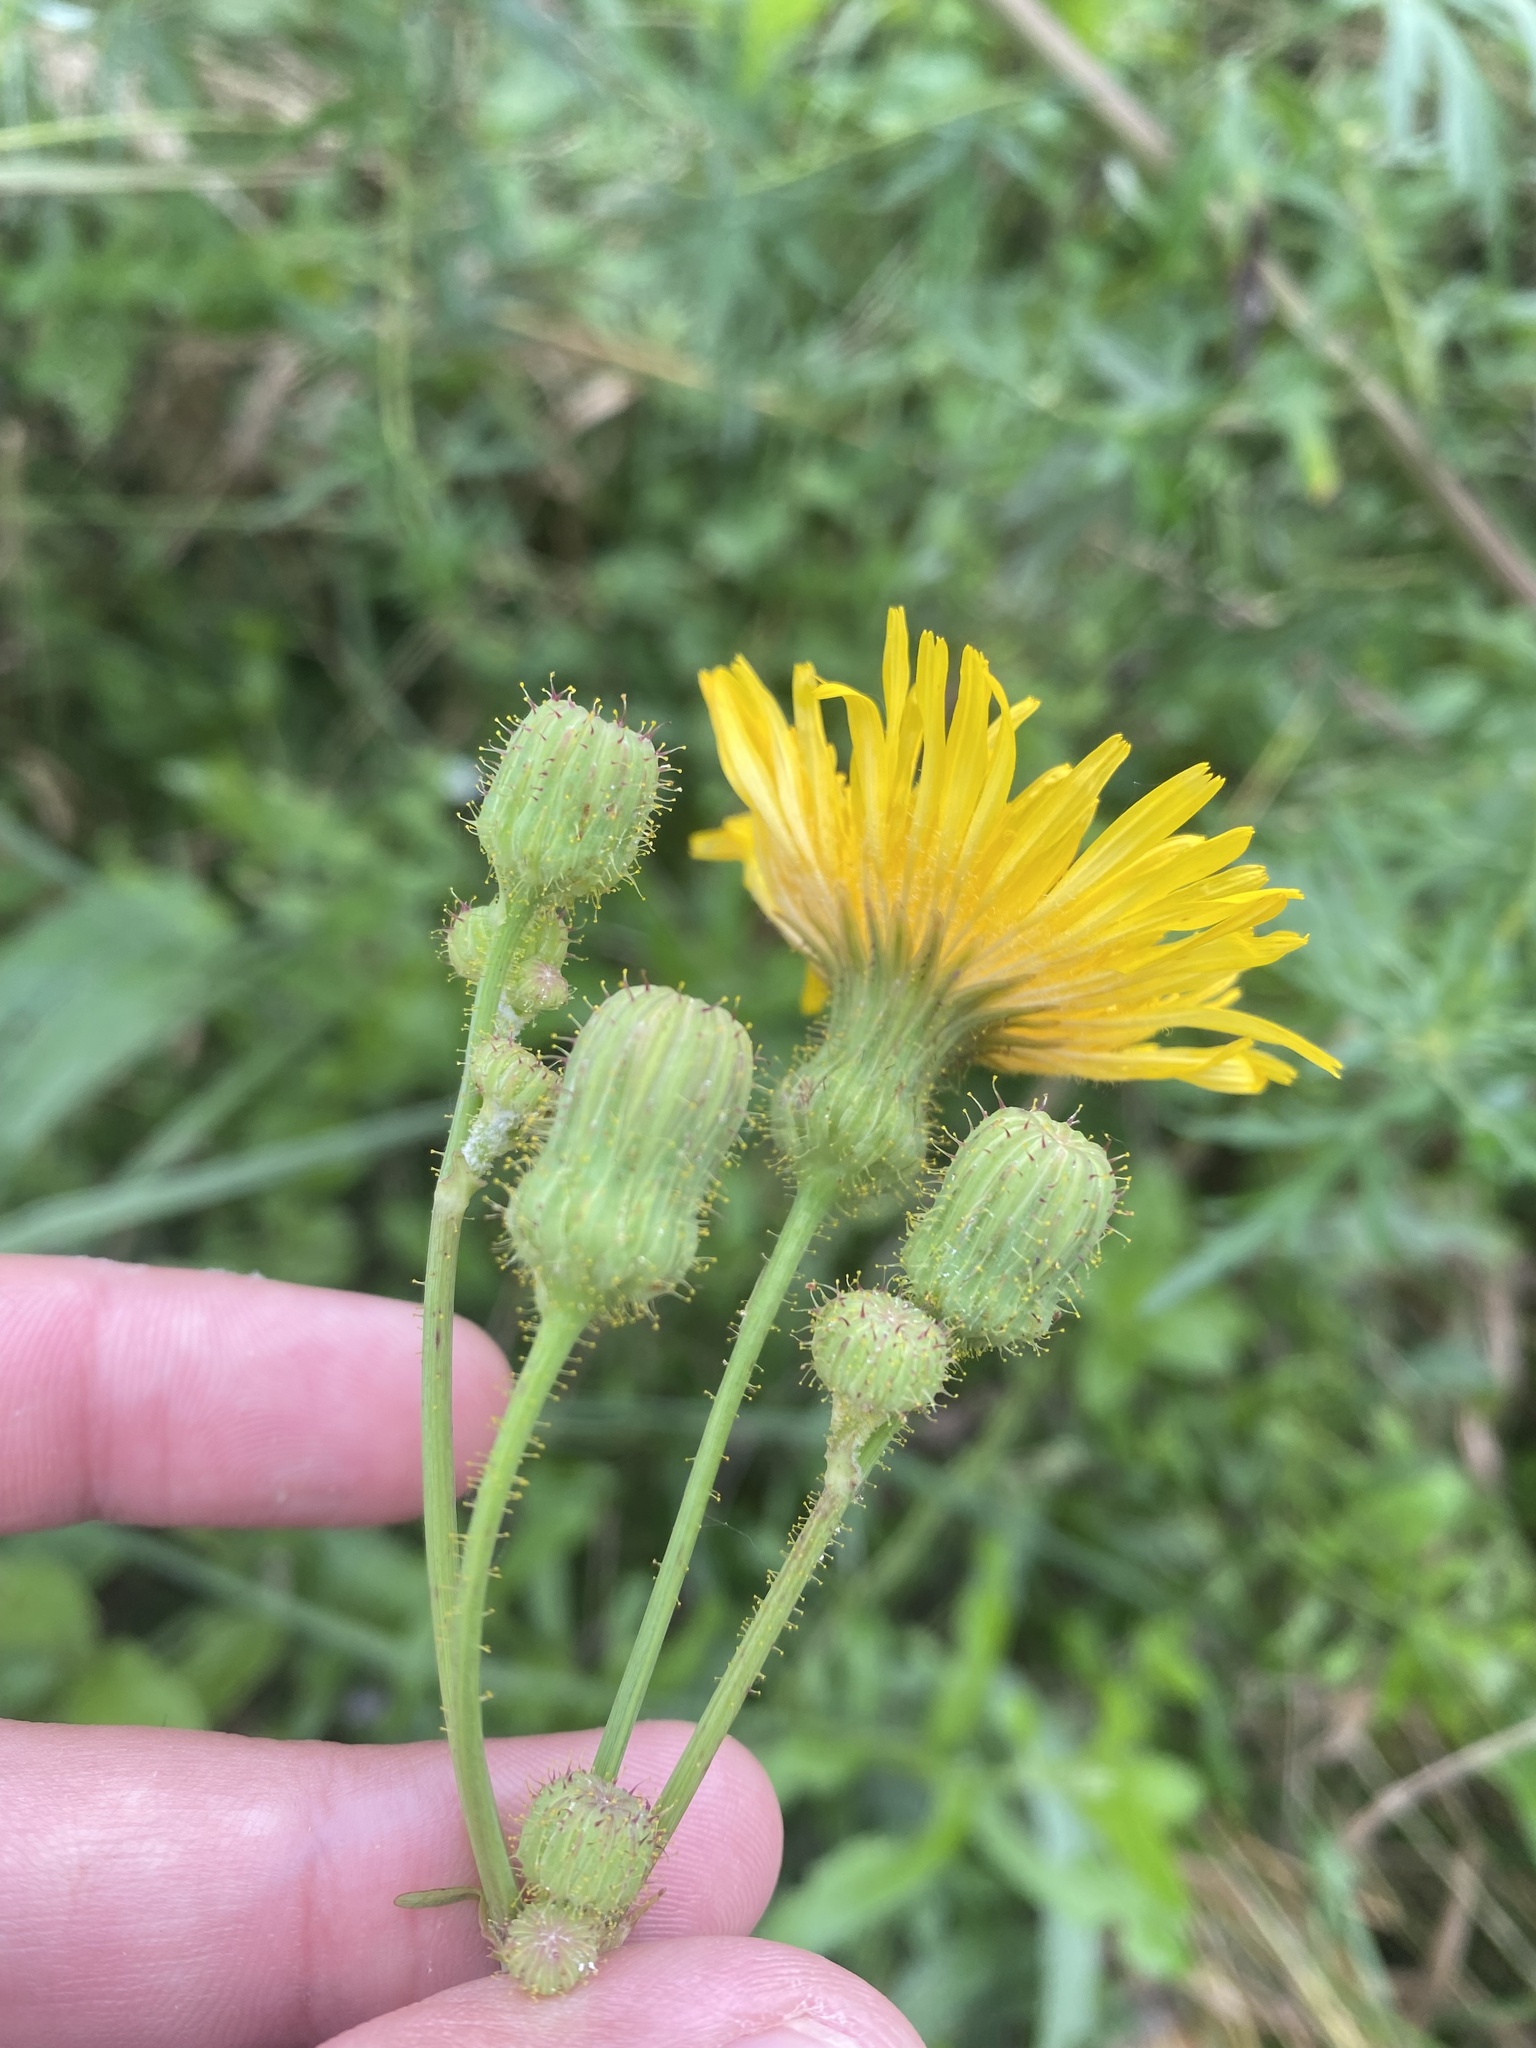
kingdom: Plantae
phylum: Tracheophyta
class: Magnoliopsida
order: Asterales
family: Asteraceae
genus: Sonchus
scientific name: Sonchus arvensis
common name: Perennial sow-thistle
